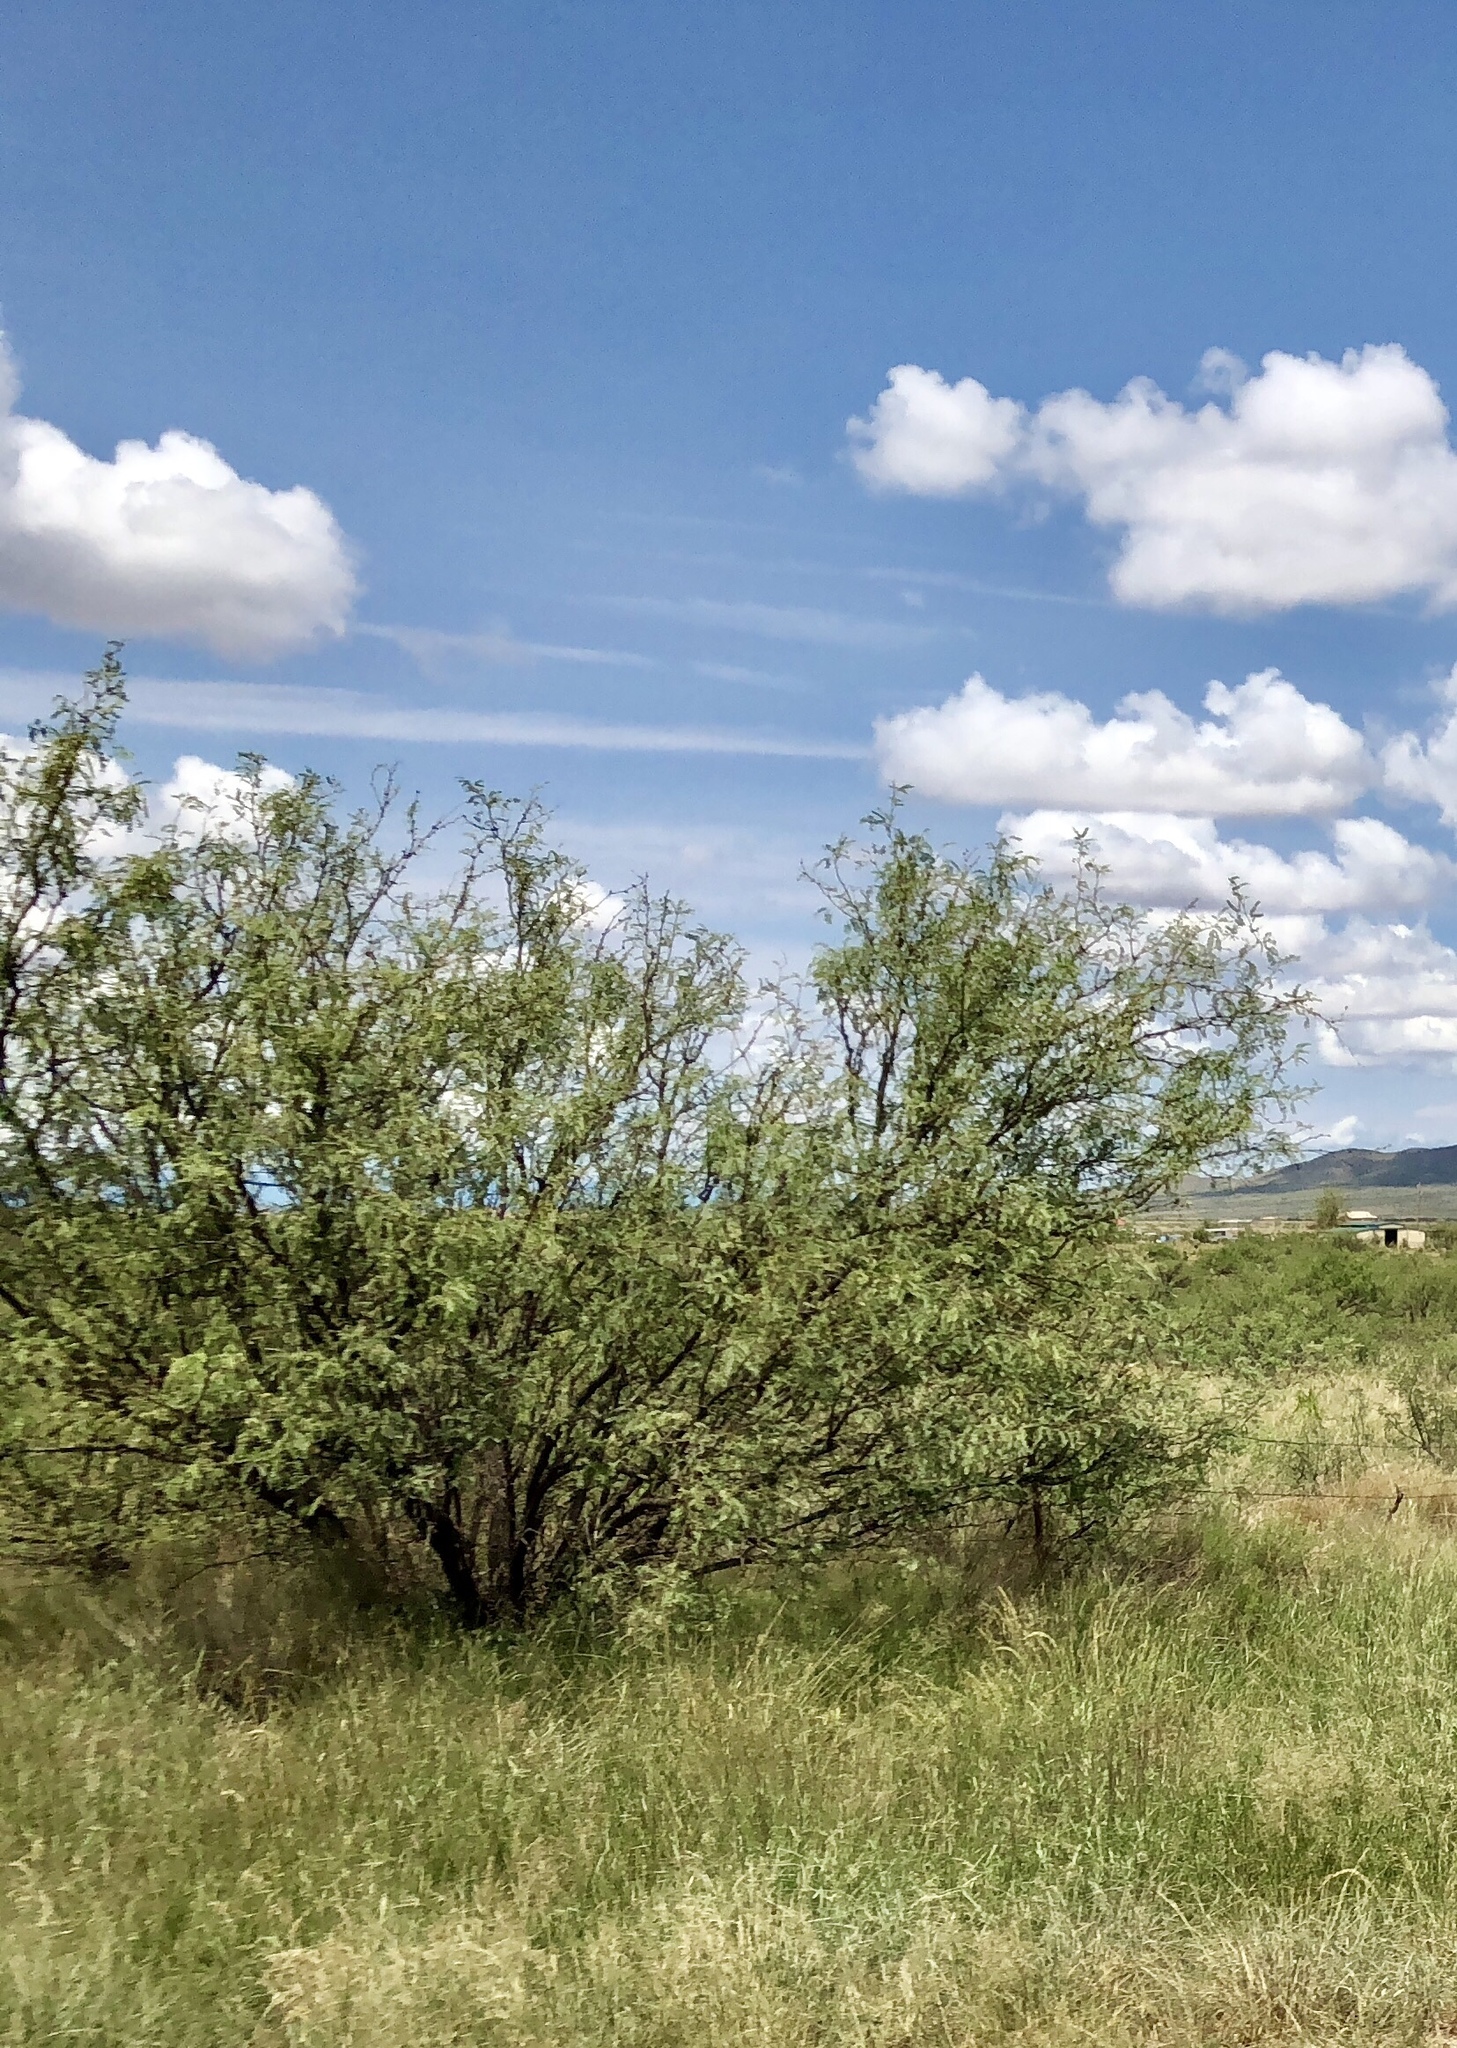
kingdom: Plantae
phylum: Tracheophyta
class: Magnoliopsida
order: Fabales
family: Fabaceae
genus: Prosopis
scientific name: Prosopis glandulosa
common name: Honey mesquite
